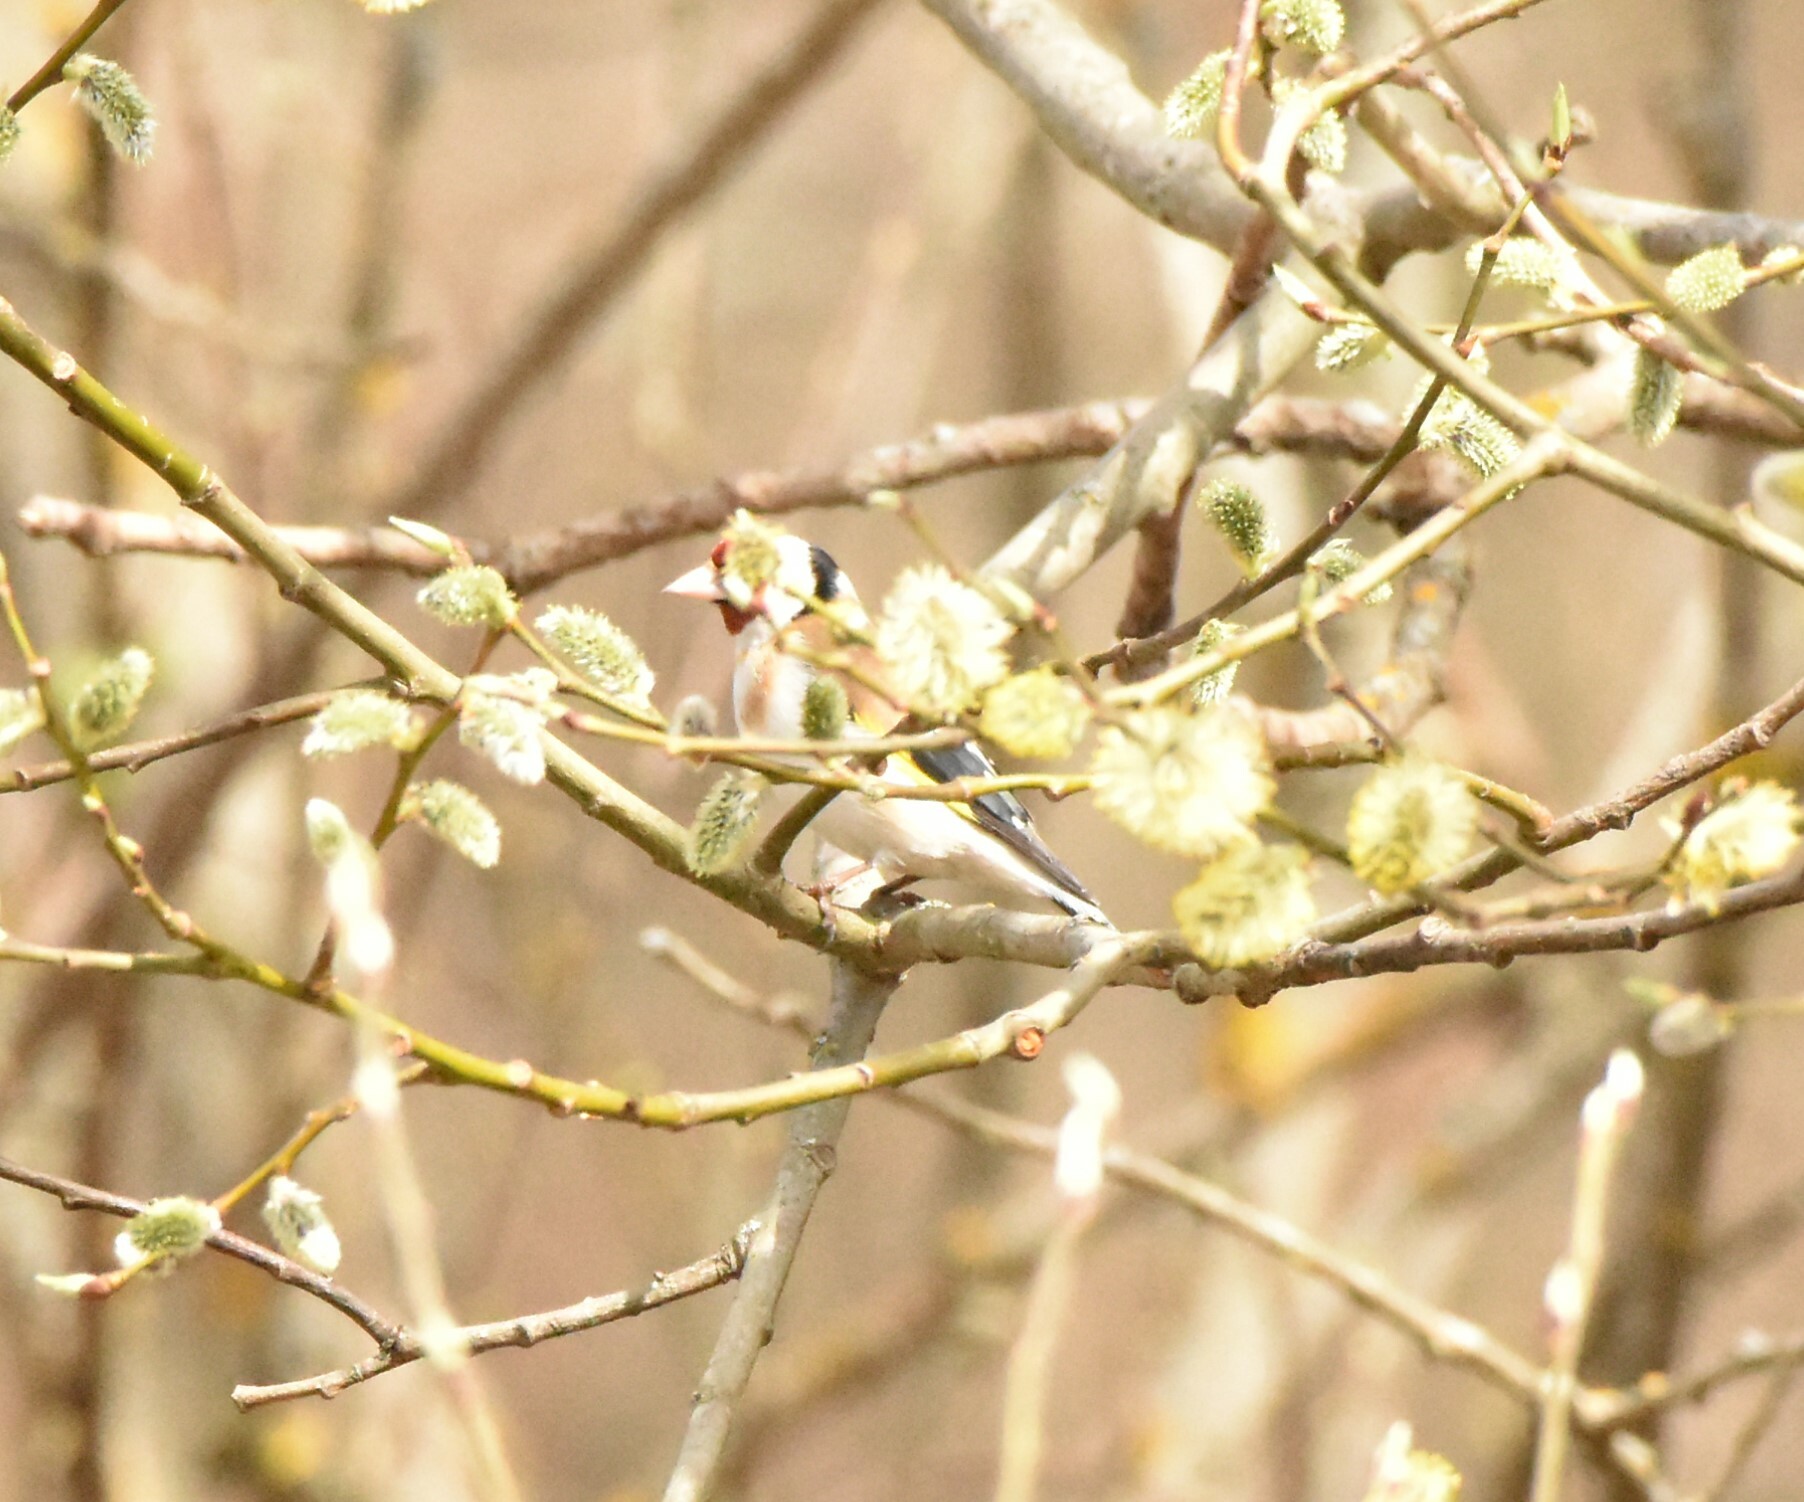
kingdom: Animalia
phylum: Chordata
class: Aves
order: Passeriformes
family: Fringillidae
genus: Carduelis
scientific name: Carduelis carduelis
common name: European goldfinch
